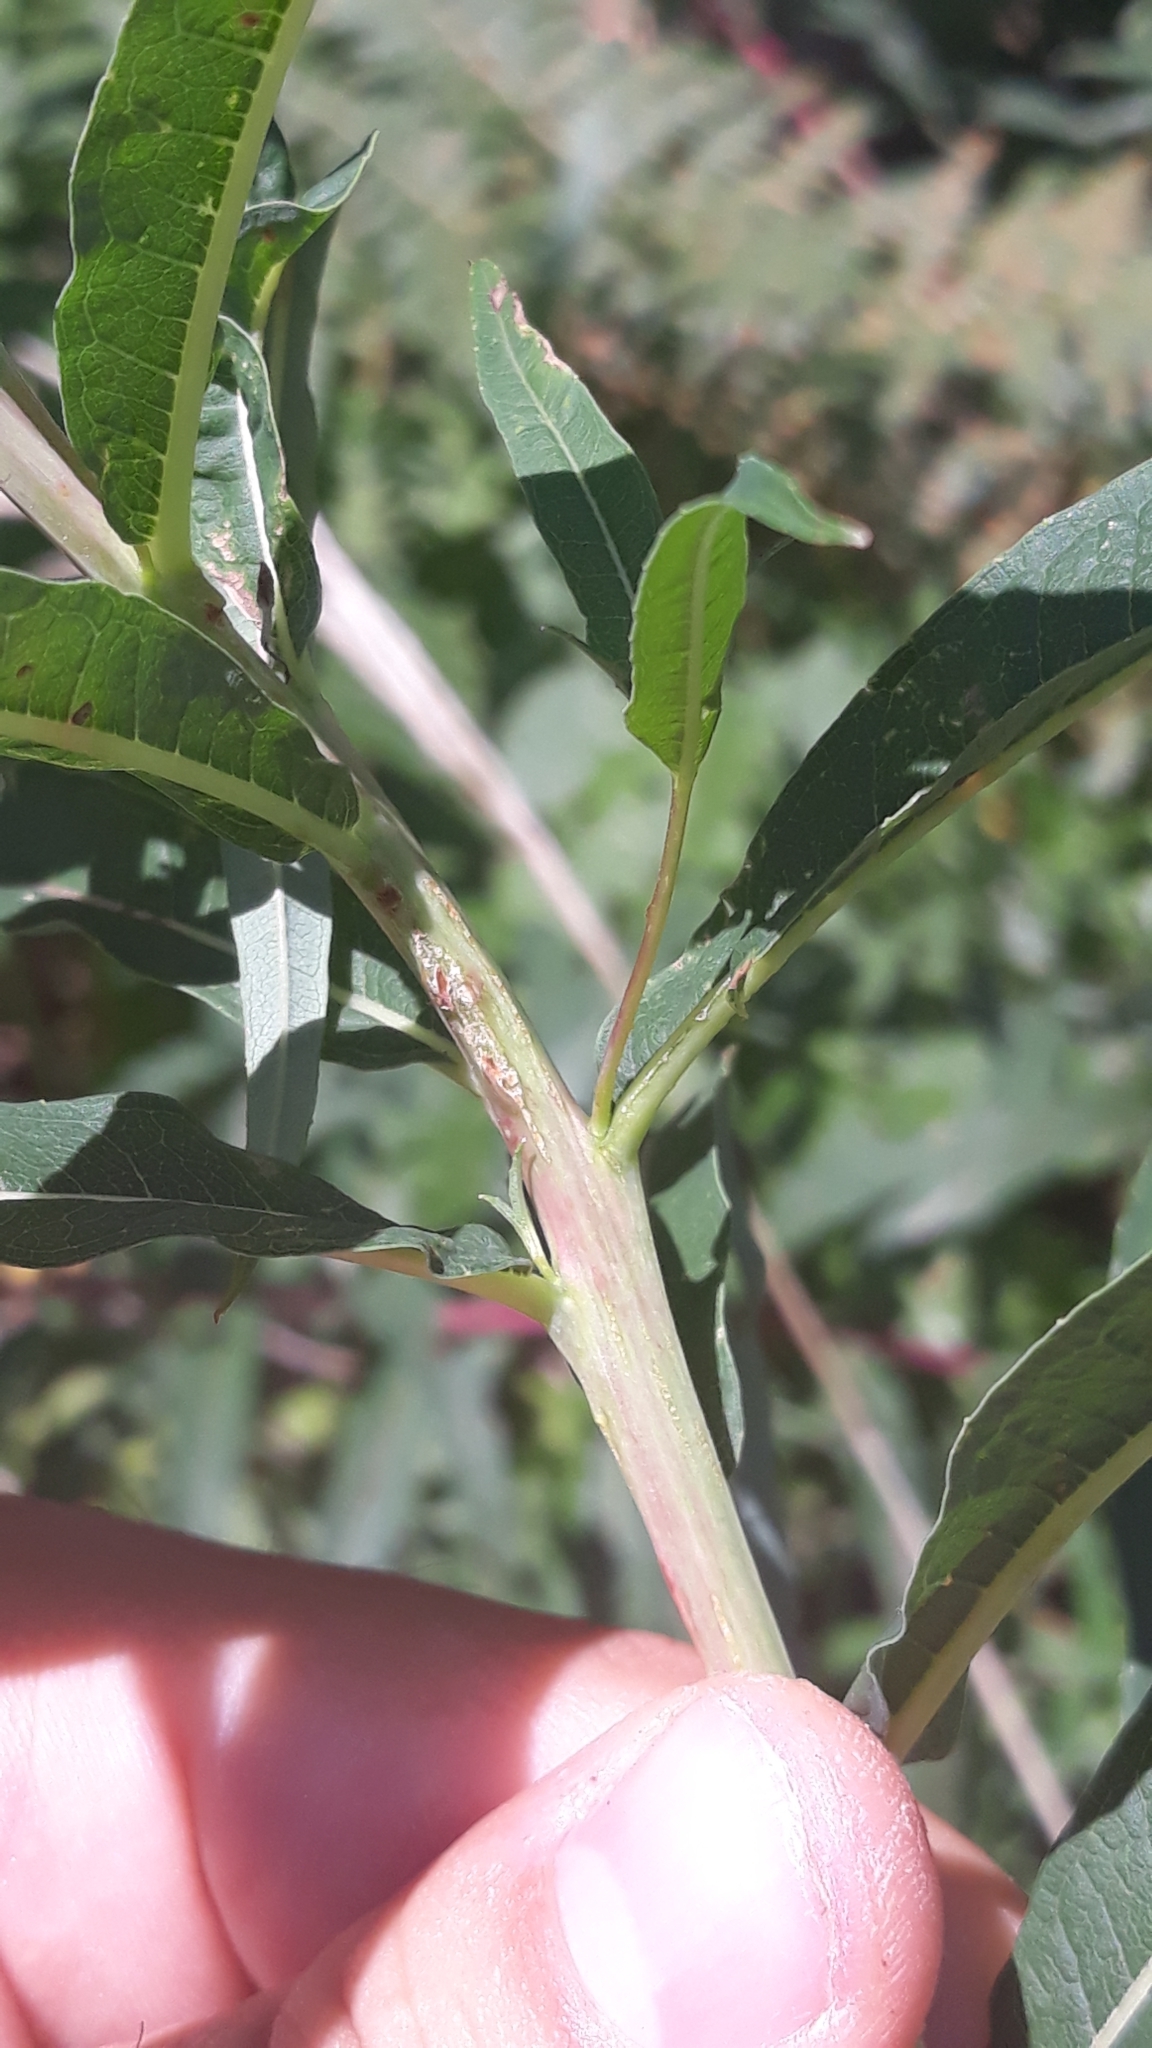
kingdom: Plantae
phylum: Tracheophyta
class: Magnoliopsida
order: Myrtales
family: Onagraceae
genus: Chamaenerion
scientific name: Chamaenerion angustifolium
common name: Fireweed
